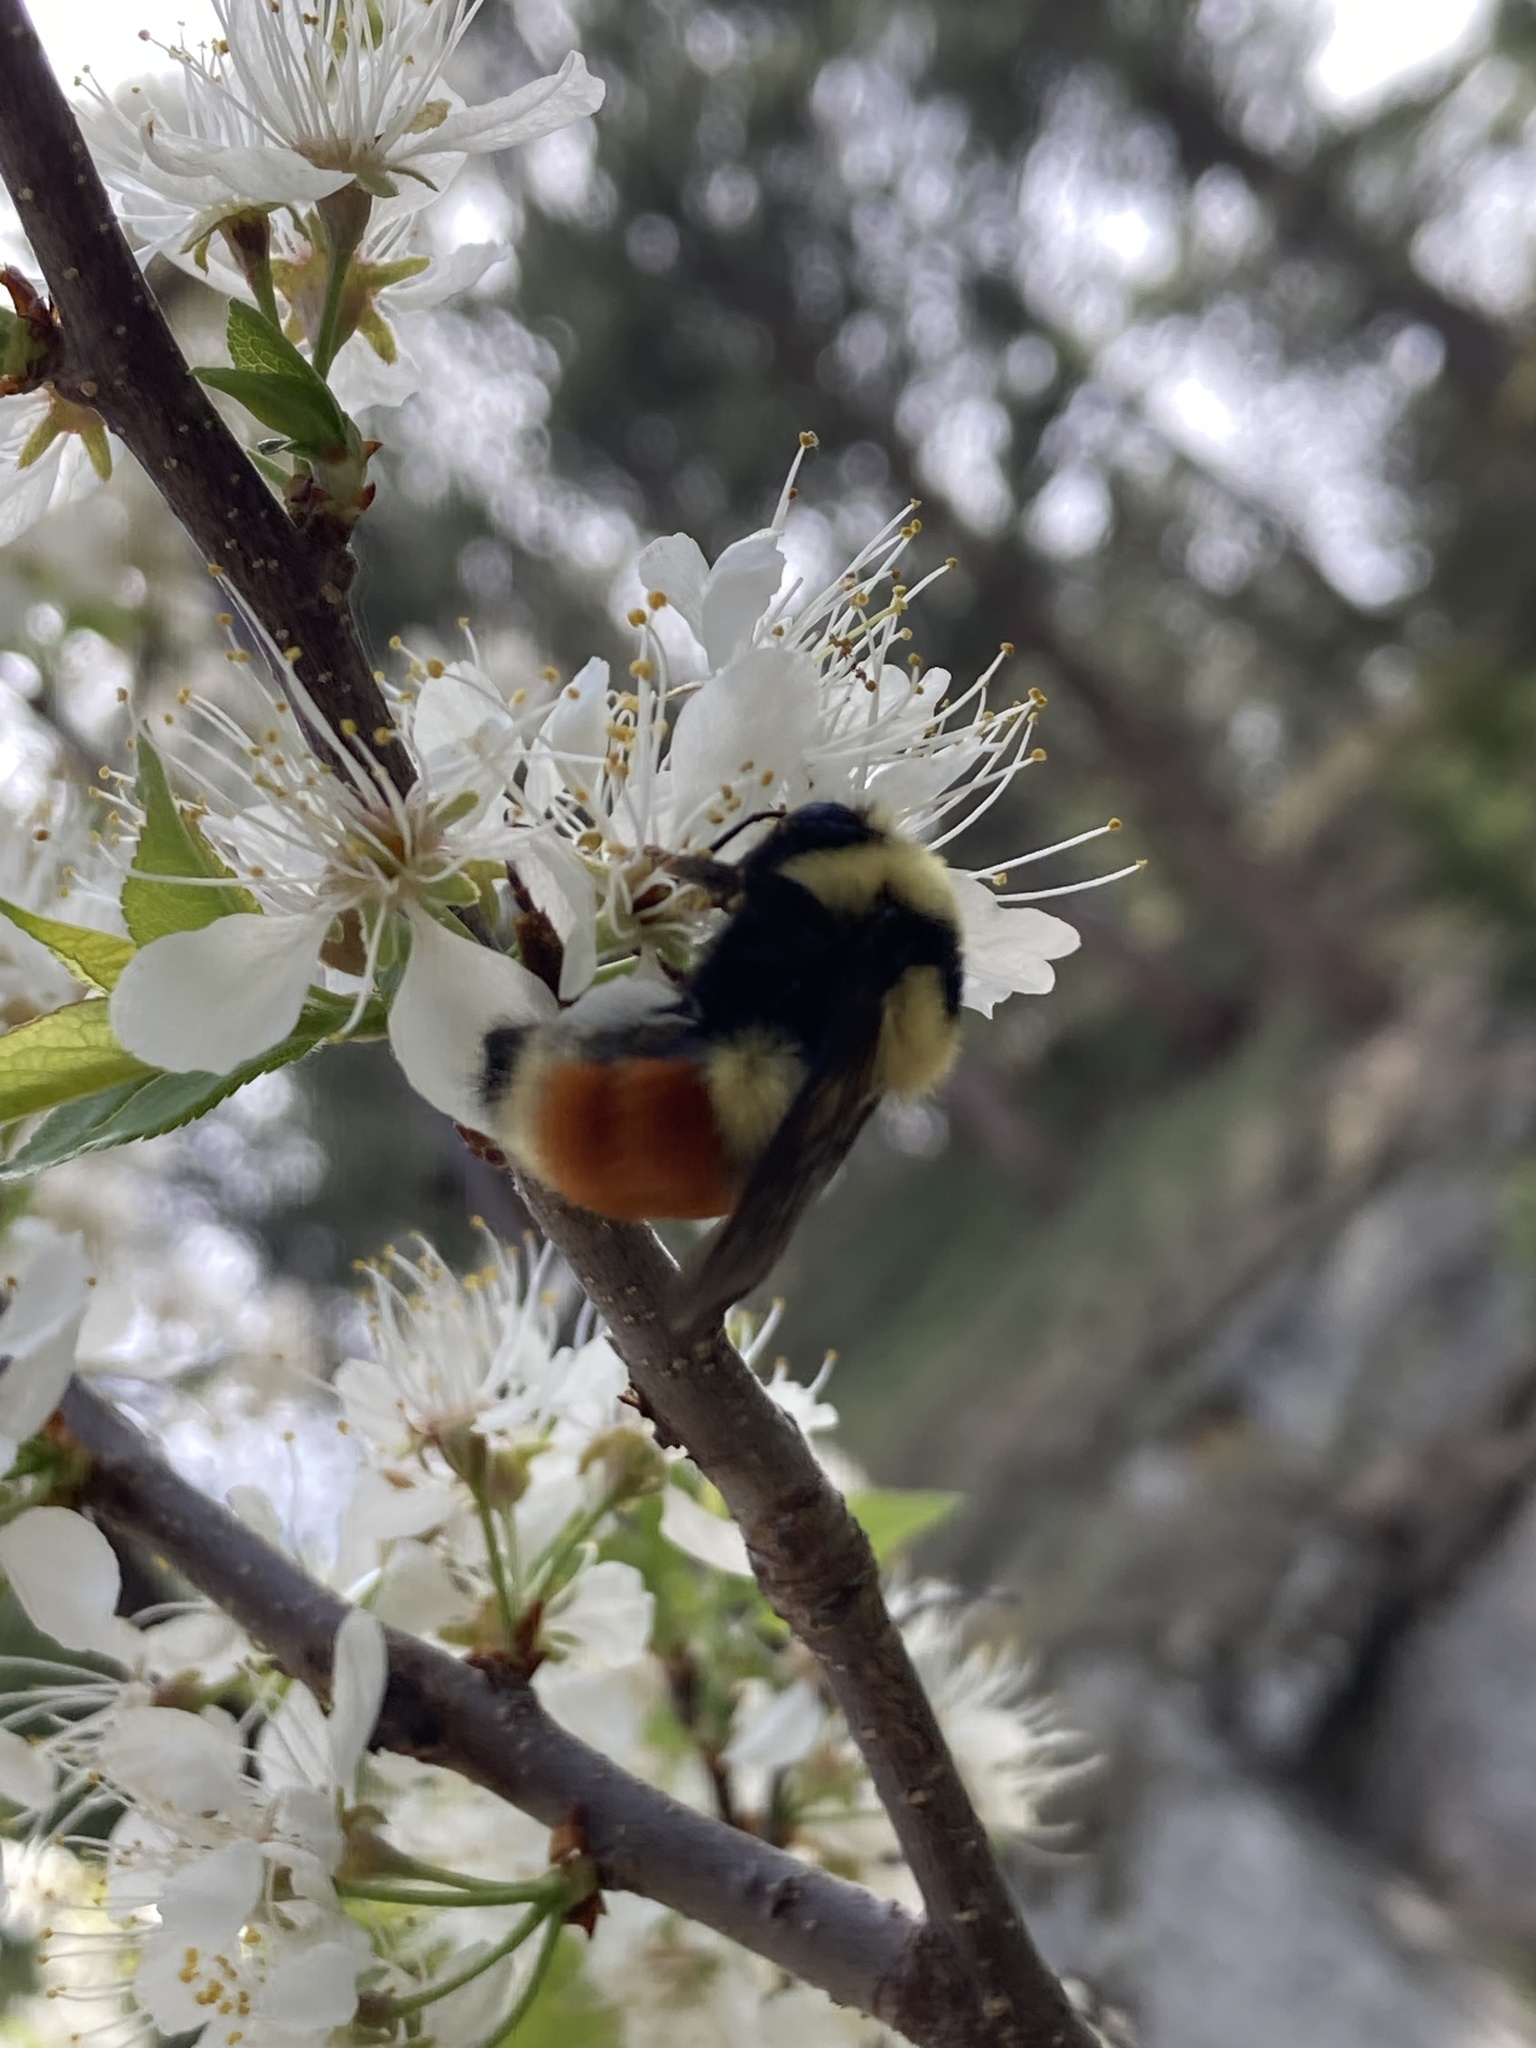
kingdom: Animalia
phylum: Arthropoda
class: Insecta
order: Hymenoptera
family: Apidae
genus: Bombus
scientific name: Bombus huntii
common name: Hunt bumble bee
